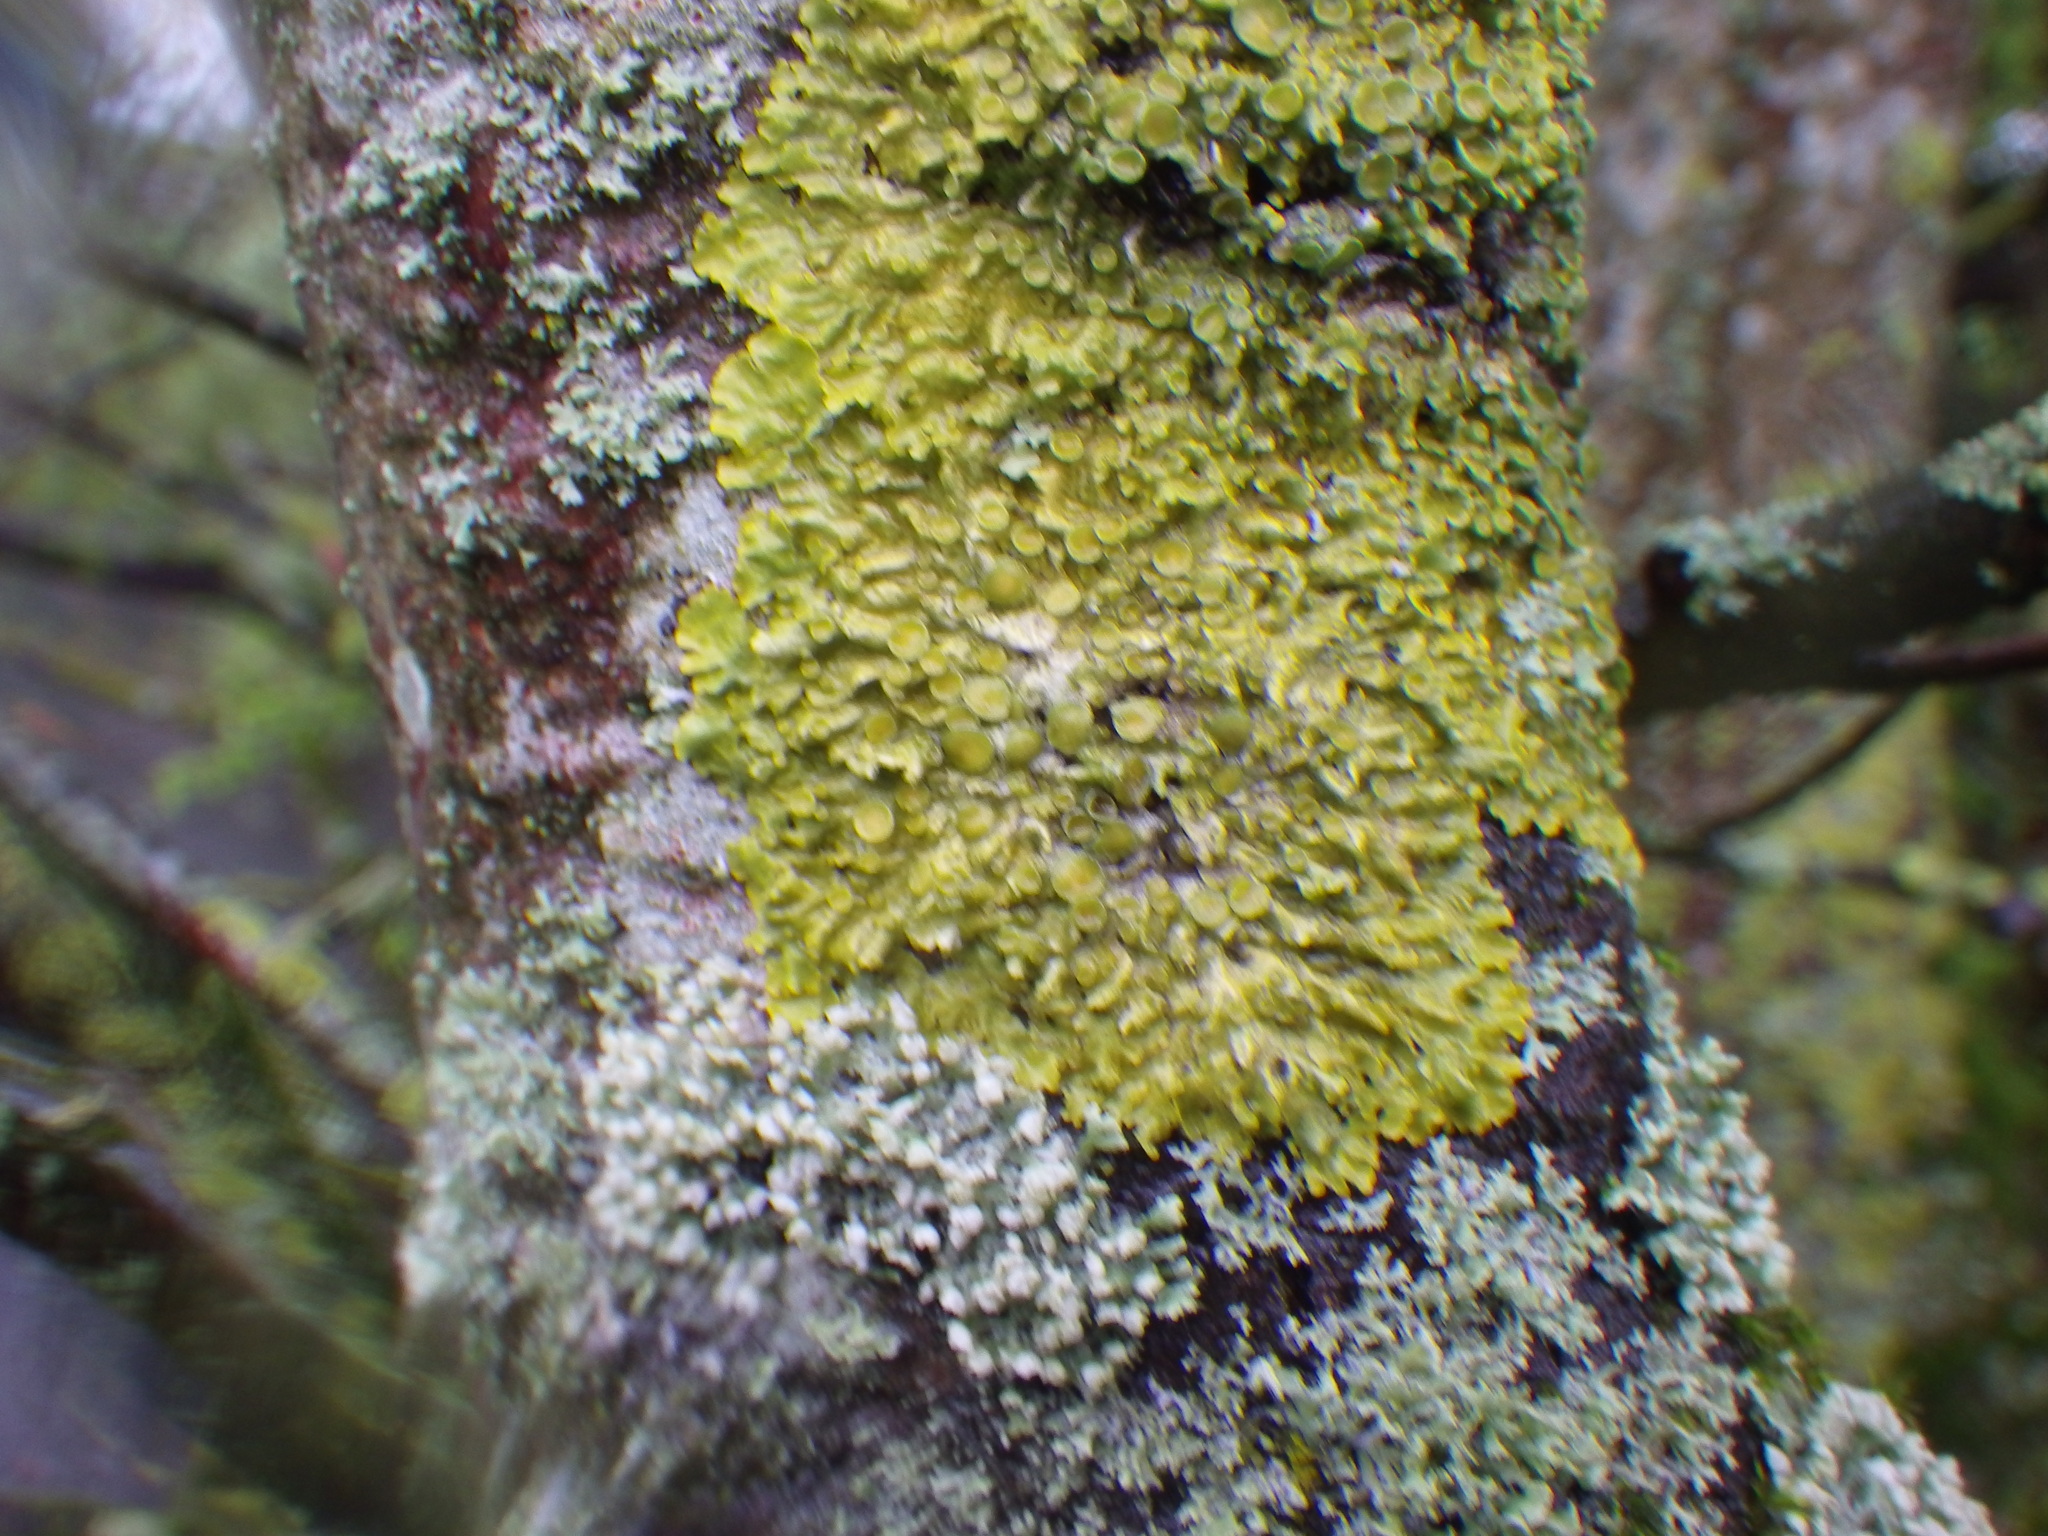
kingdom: Fungi
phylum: Ascomycota
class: Lecanoromycetes
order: Teloschistales
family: Teloschistaceae
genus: Xanthoria
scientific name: Xanthoria parietina
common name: Common orange lichen
